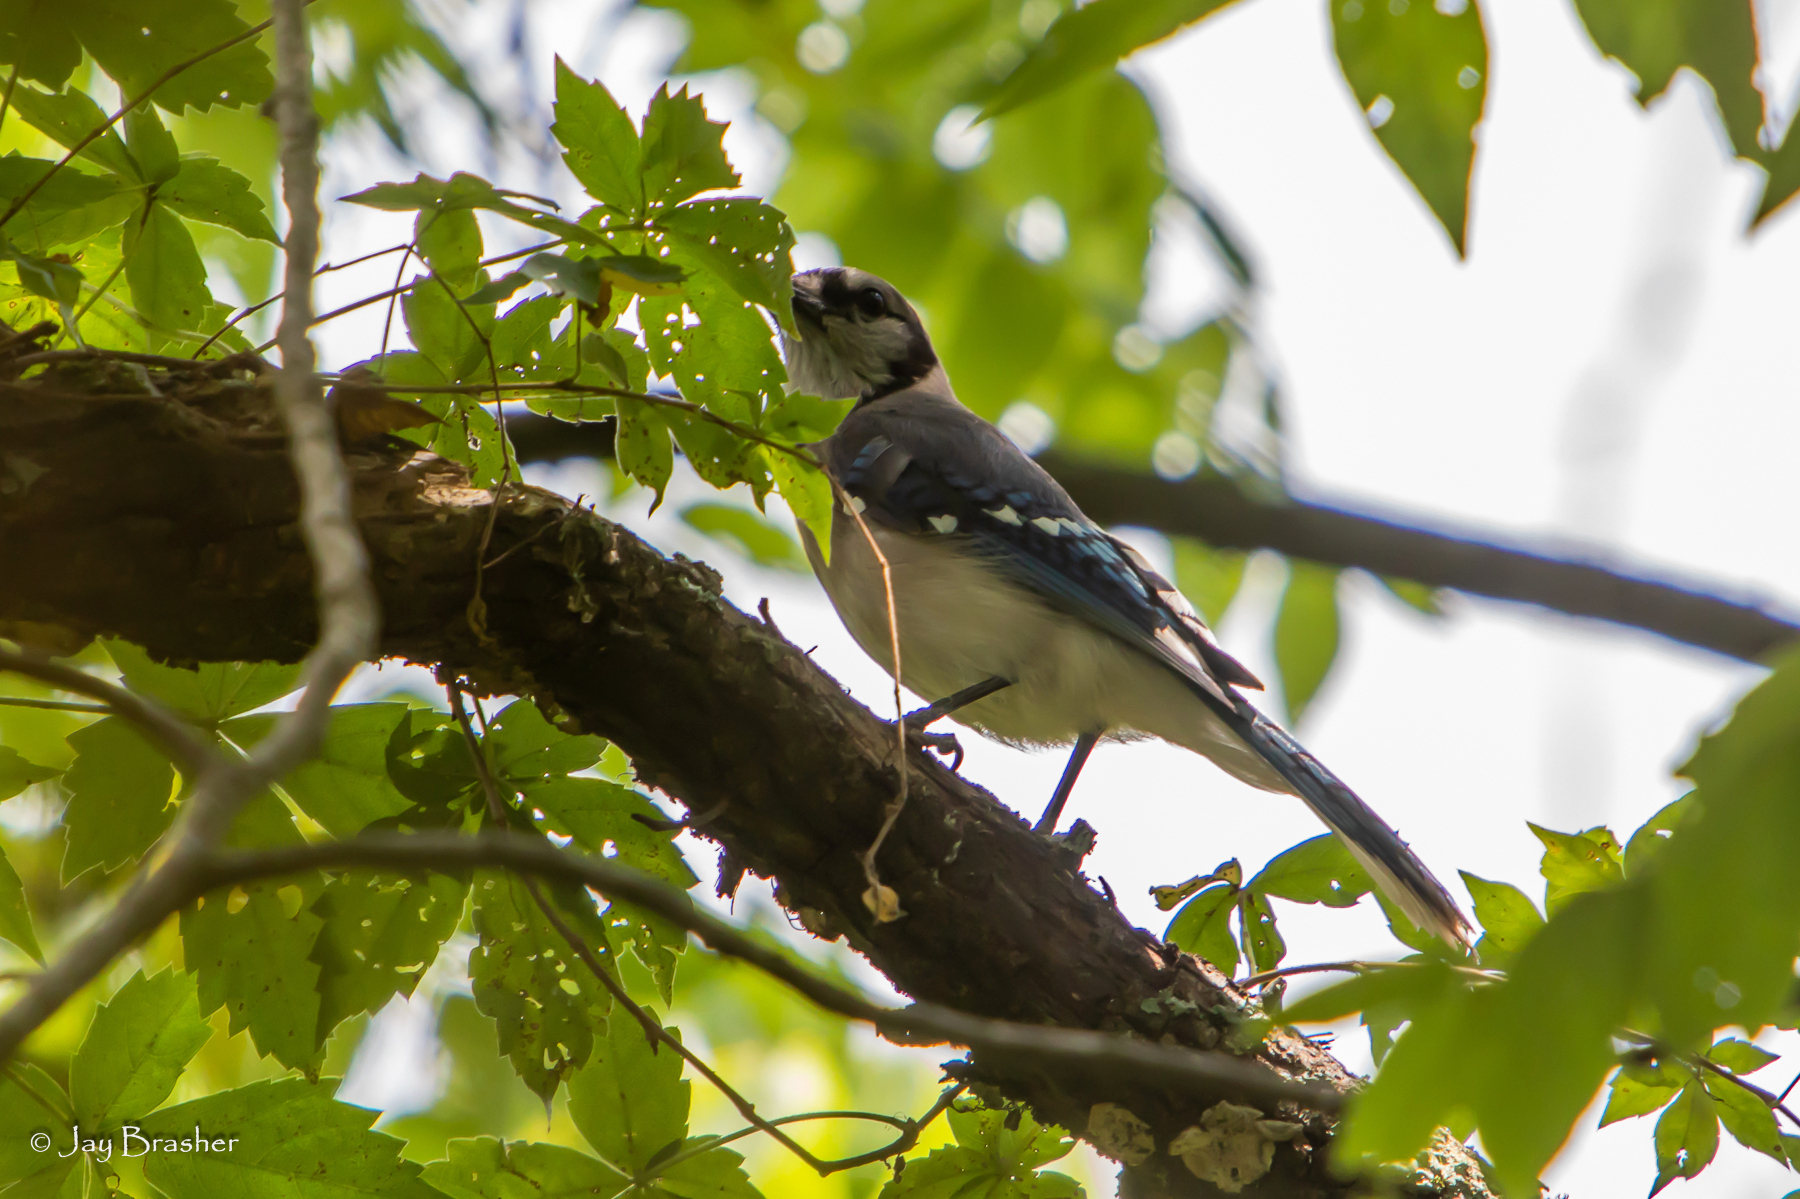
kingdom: Animalia
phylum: Chordata
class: Aves
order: Passeriformes
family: Corvidae
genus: Cyanocitta
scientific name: Cyanocitta cristata
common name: Blue jay
